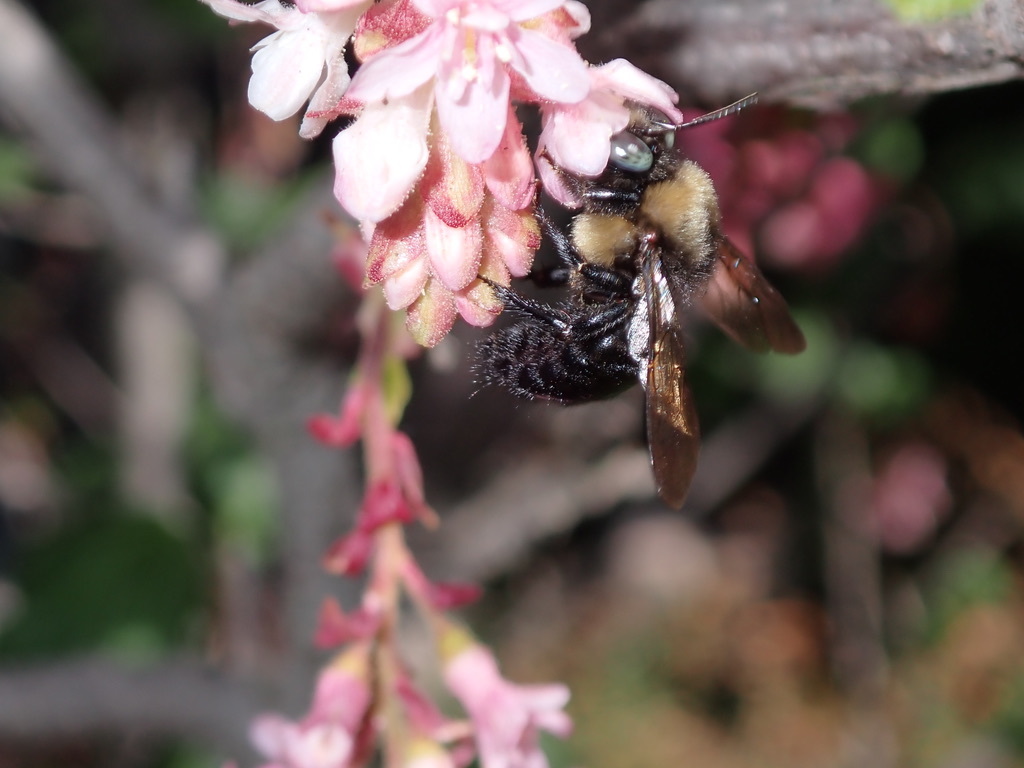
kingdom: Animalia
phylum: Arthropoda
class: Insecta
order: Hymenoptera
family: Apidae
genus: Xylocopa
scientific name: Xylocopa tabaniformis
